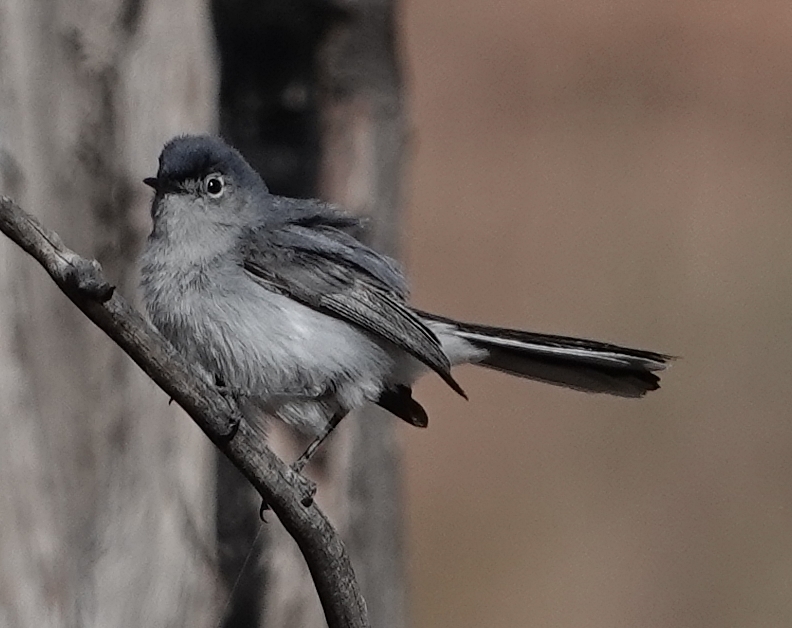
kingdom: Animalia
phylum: Chordata
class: Aves
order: Passeriformes
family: Polioptilidae
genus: Polioptila
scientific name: Polioptila caerulea
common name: Blue-gray gnatcatcher
